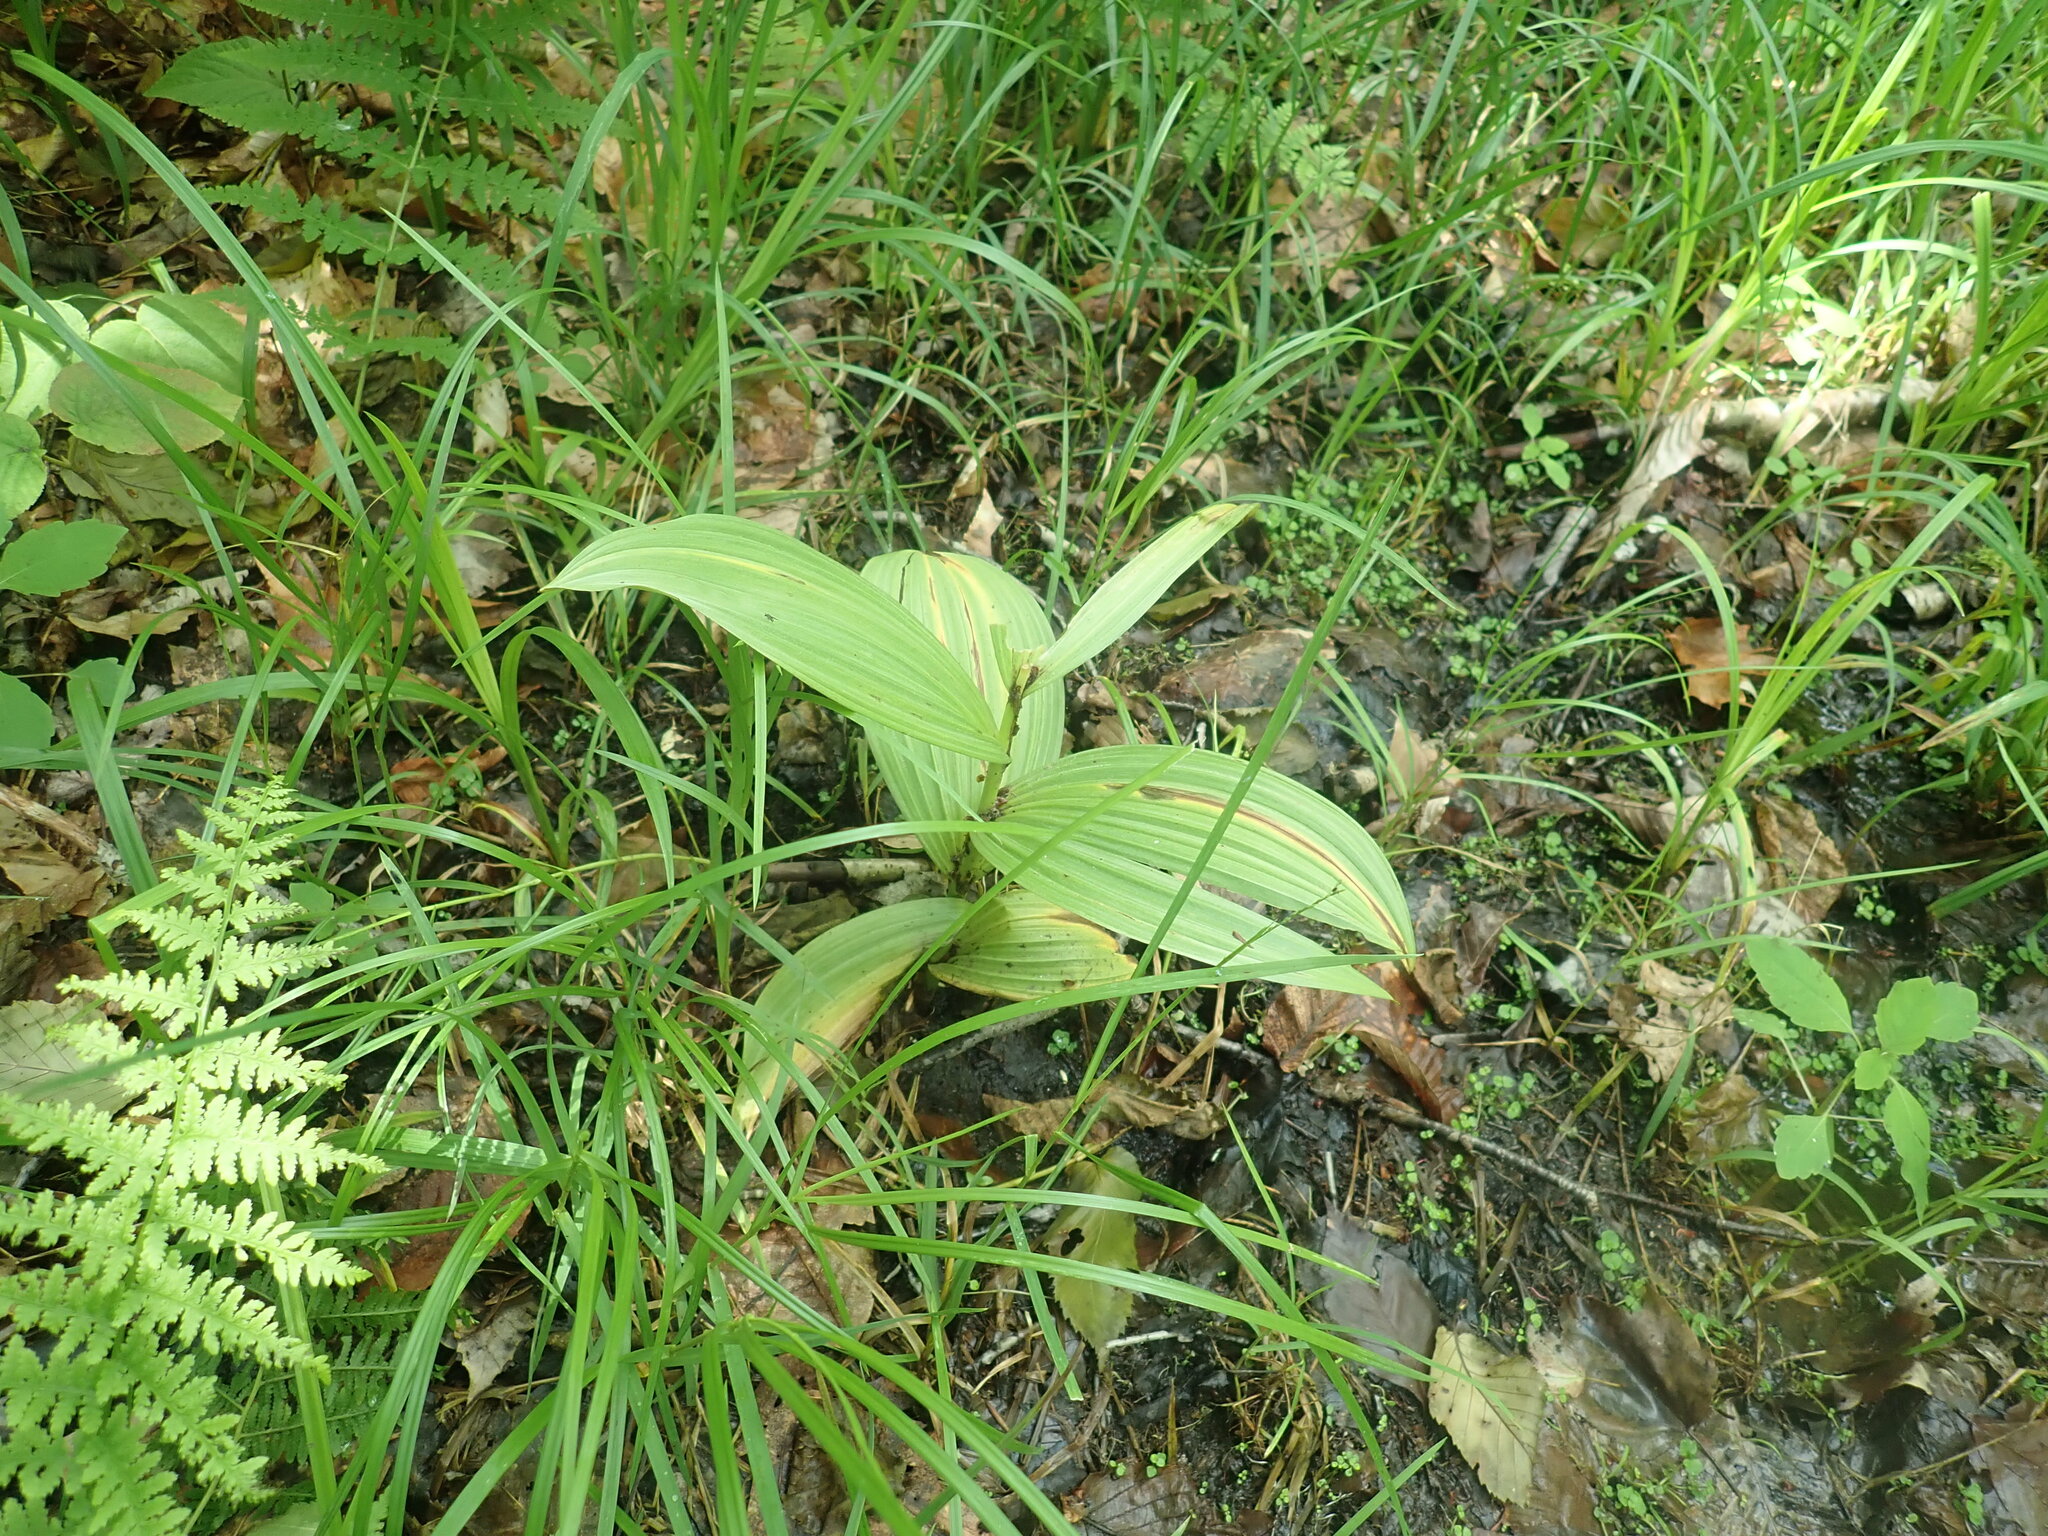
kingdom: Plantae
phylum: Tracheophyta
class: Liliopsida
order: Liliales
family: Melanthiaceae
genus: Veratrum
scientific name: Veratrum viride
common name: American false hellebore
